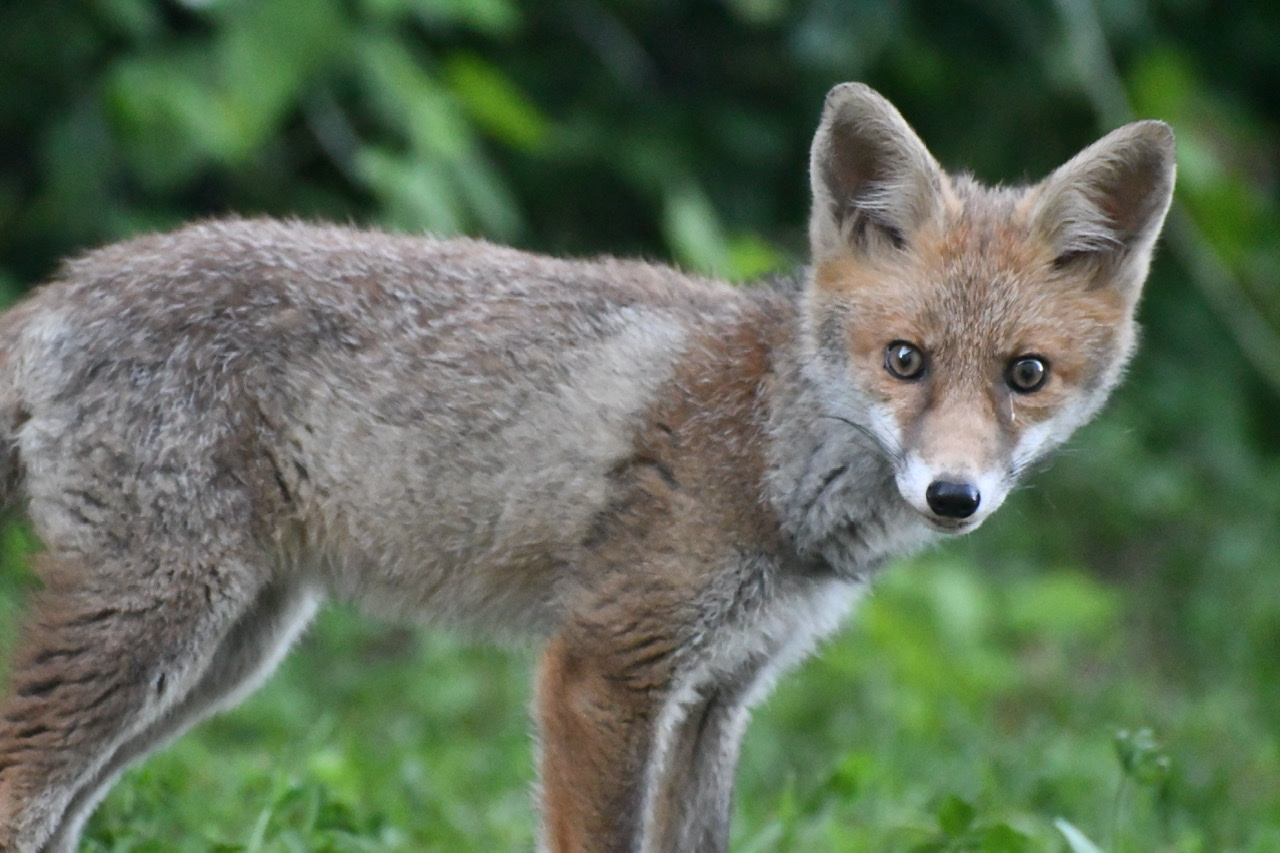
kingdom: Animalia
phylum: Chordata
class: Mammalia
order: Carnivora
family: Canidae
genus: Vulpes
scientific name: Vulpes vulpes
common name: Red fox
